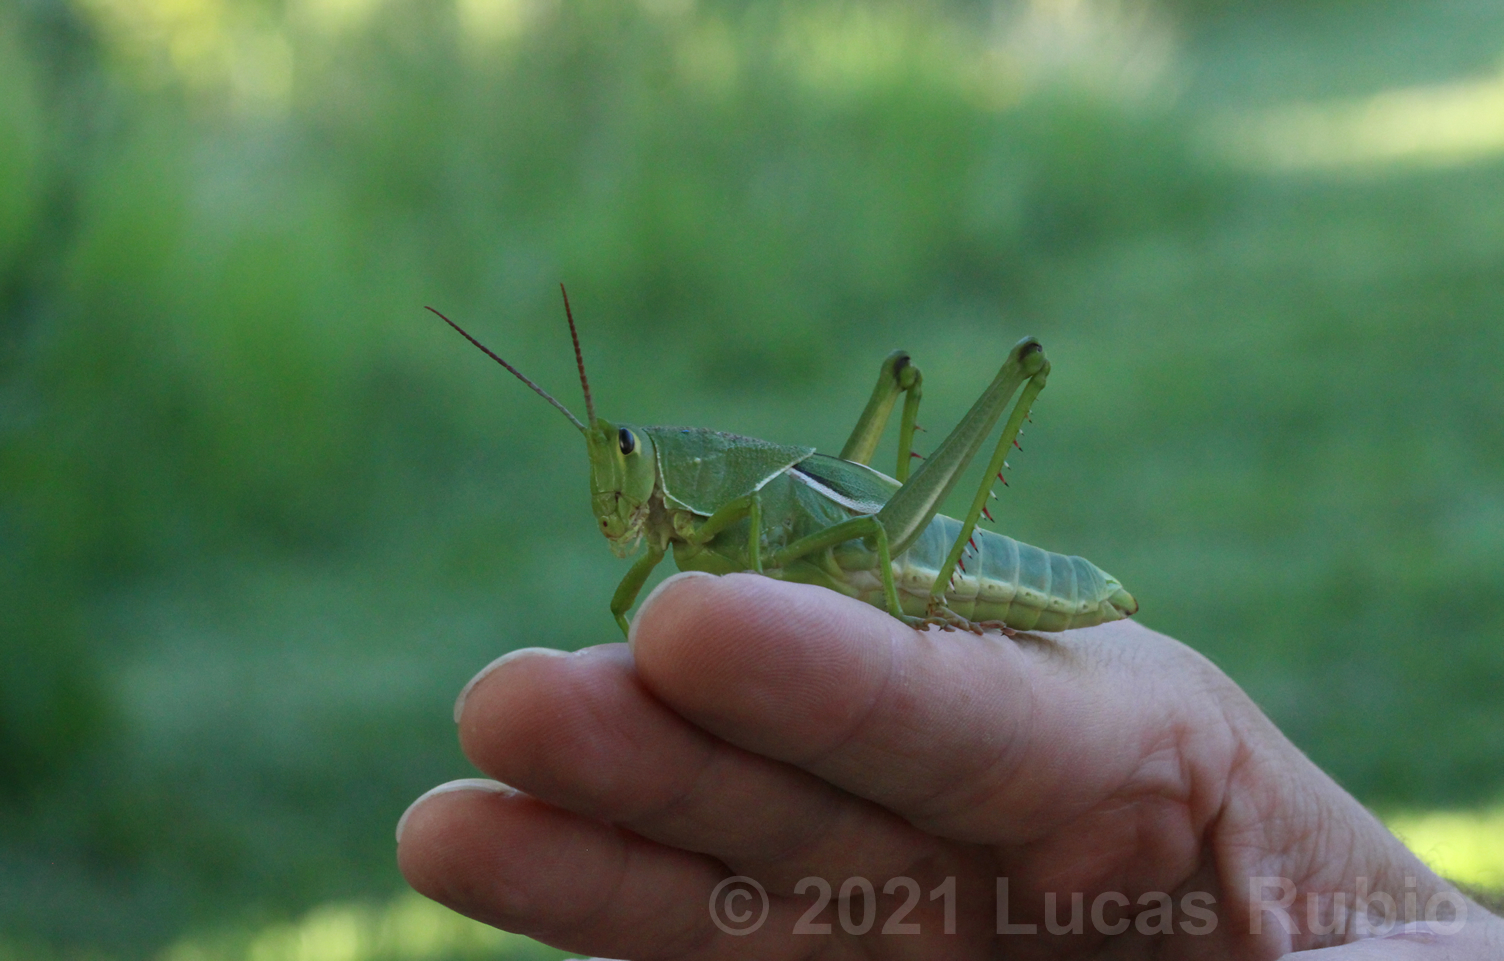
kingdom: Animalia
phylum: Arthropoda
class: Insecta
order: Orthoptera
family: Romaleidae
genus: Staleochlora
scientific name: Staleochlora viridicata
